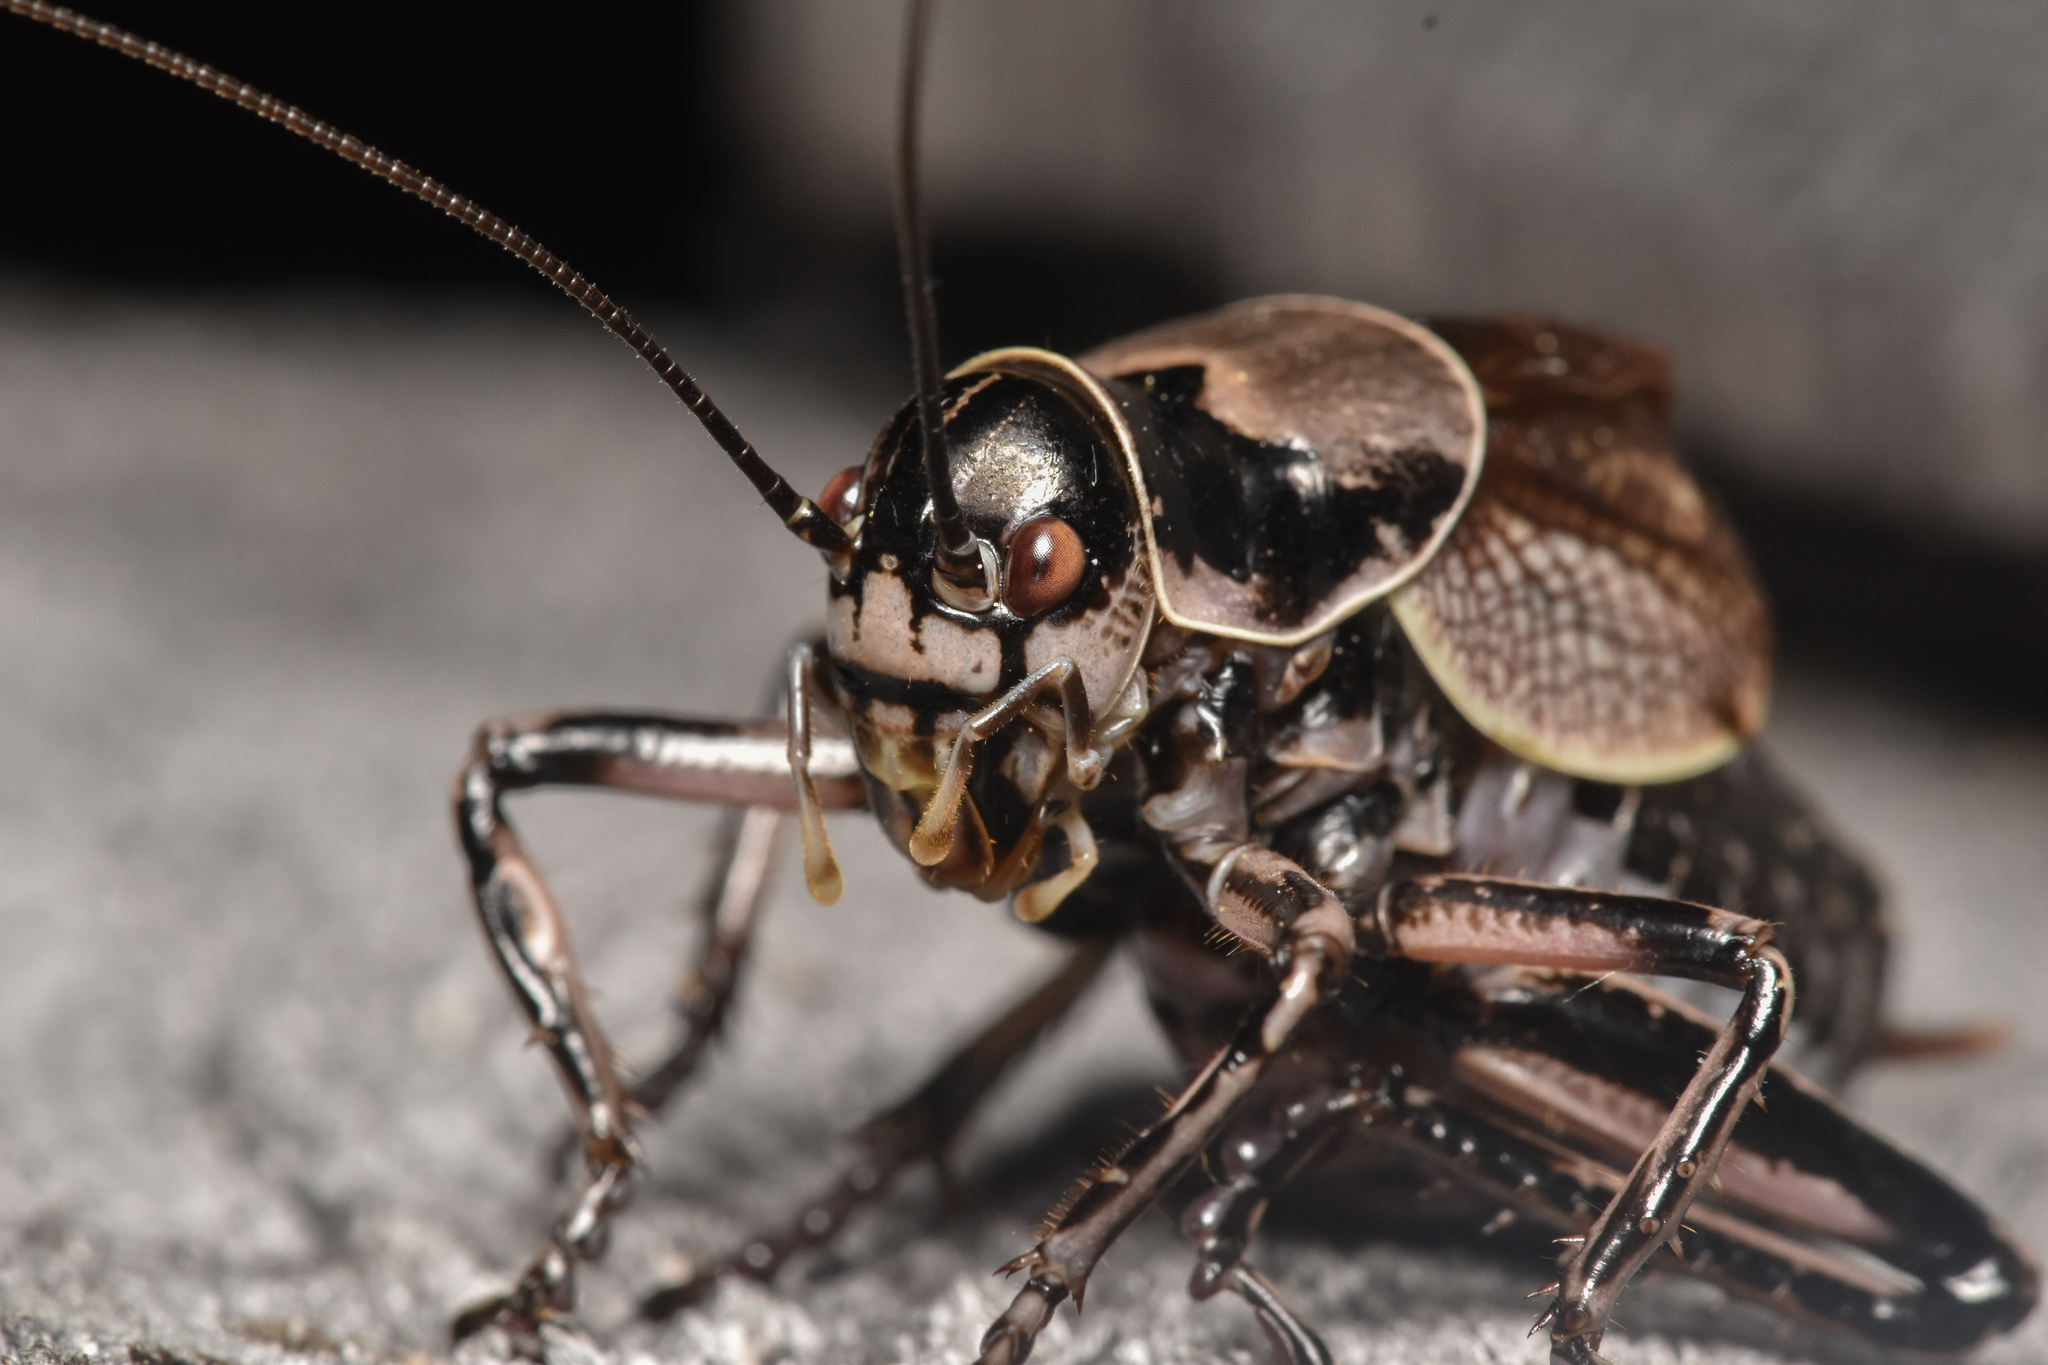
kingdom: Animalia
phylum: Arthropoda
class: Insecta
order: Orthoptera
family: Prophalangopsidae
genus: Cyphoderris
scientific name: Cyphoderris monstrosa
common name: Great grig
